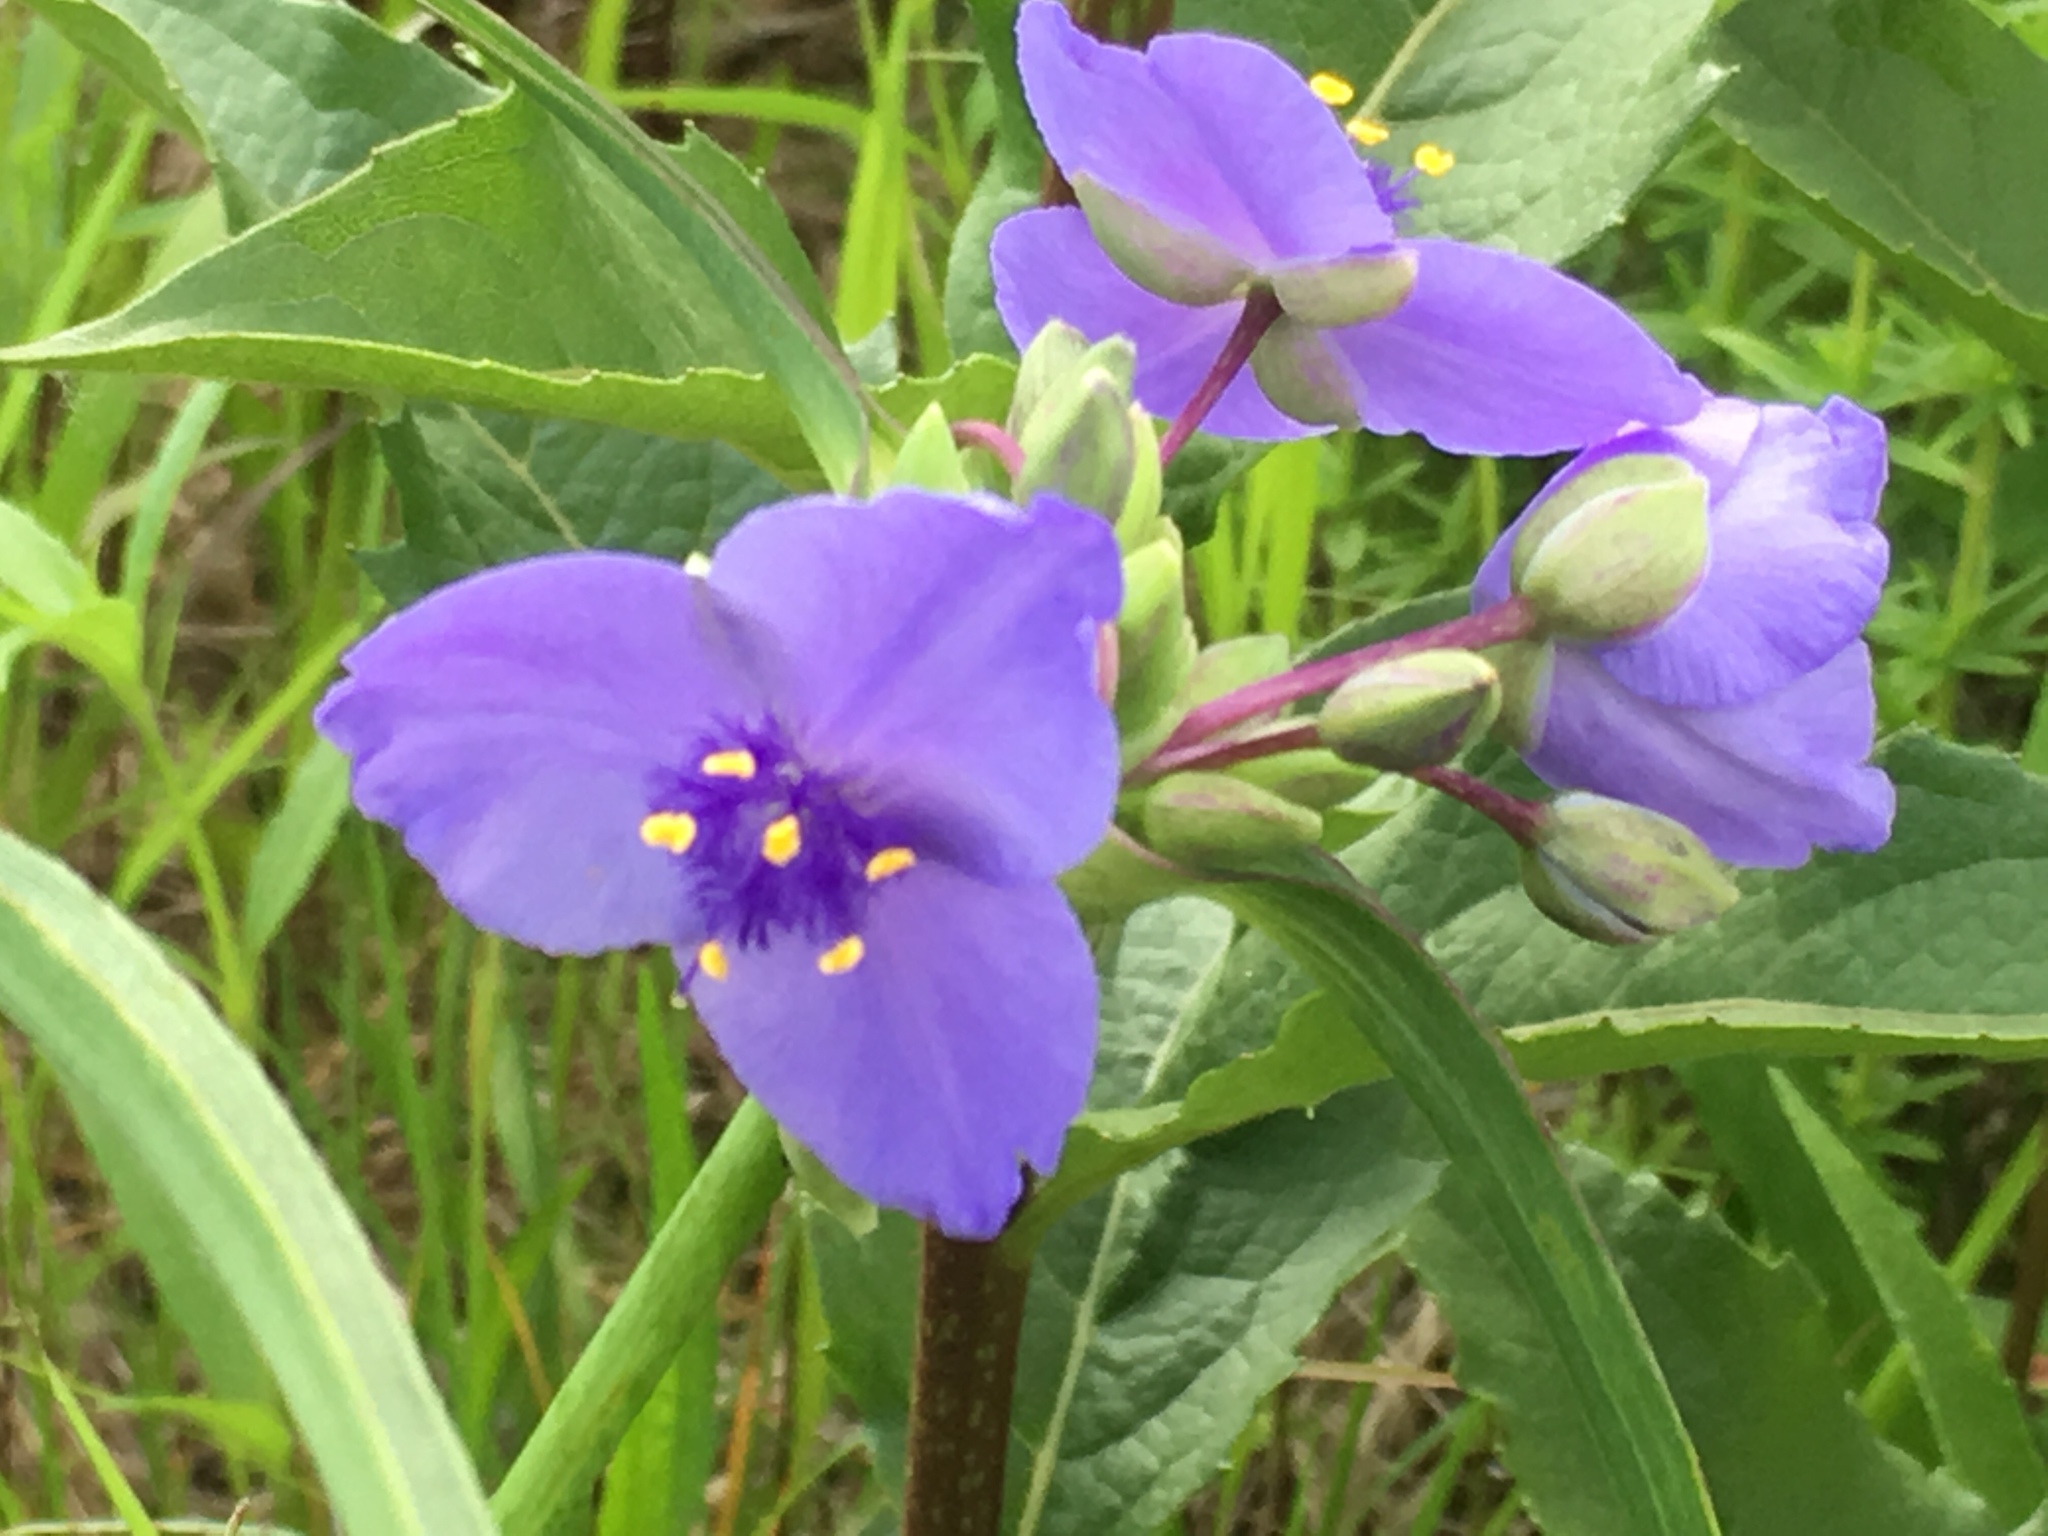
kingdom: Plantae
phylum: Tracheophyta
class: Liliopsida
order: Commelinales
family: Commelinaceae
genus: Tradescantia
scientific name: Tradescantia ohiensis
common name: Ohio spiderwort
